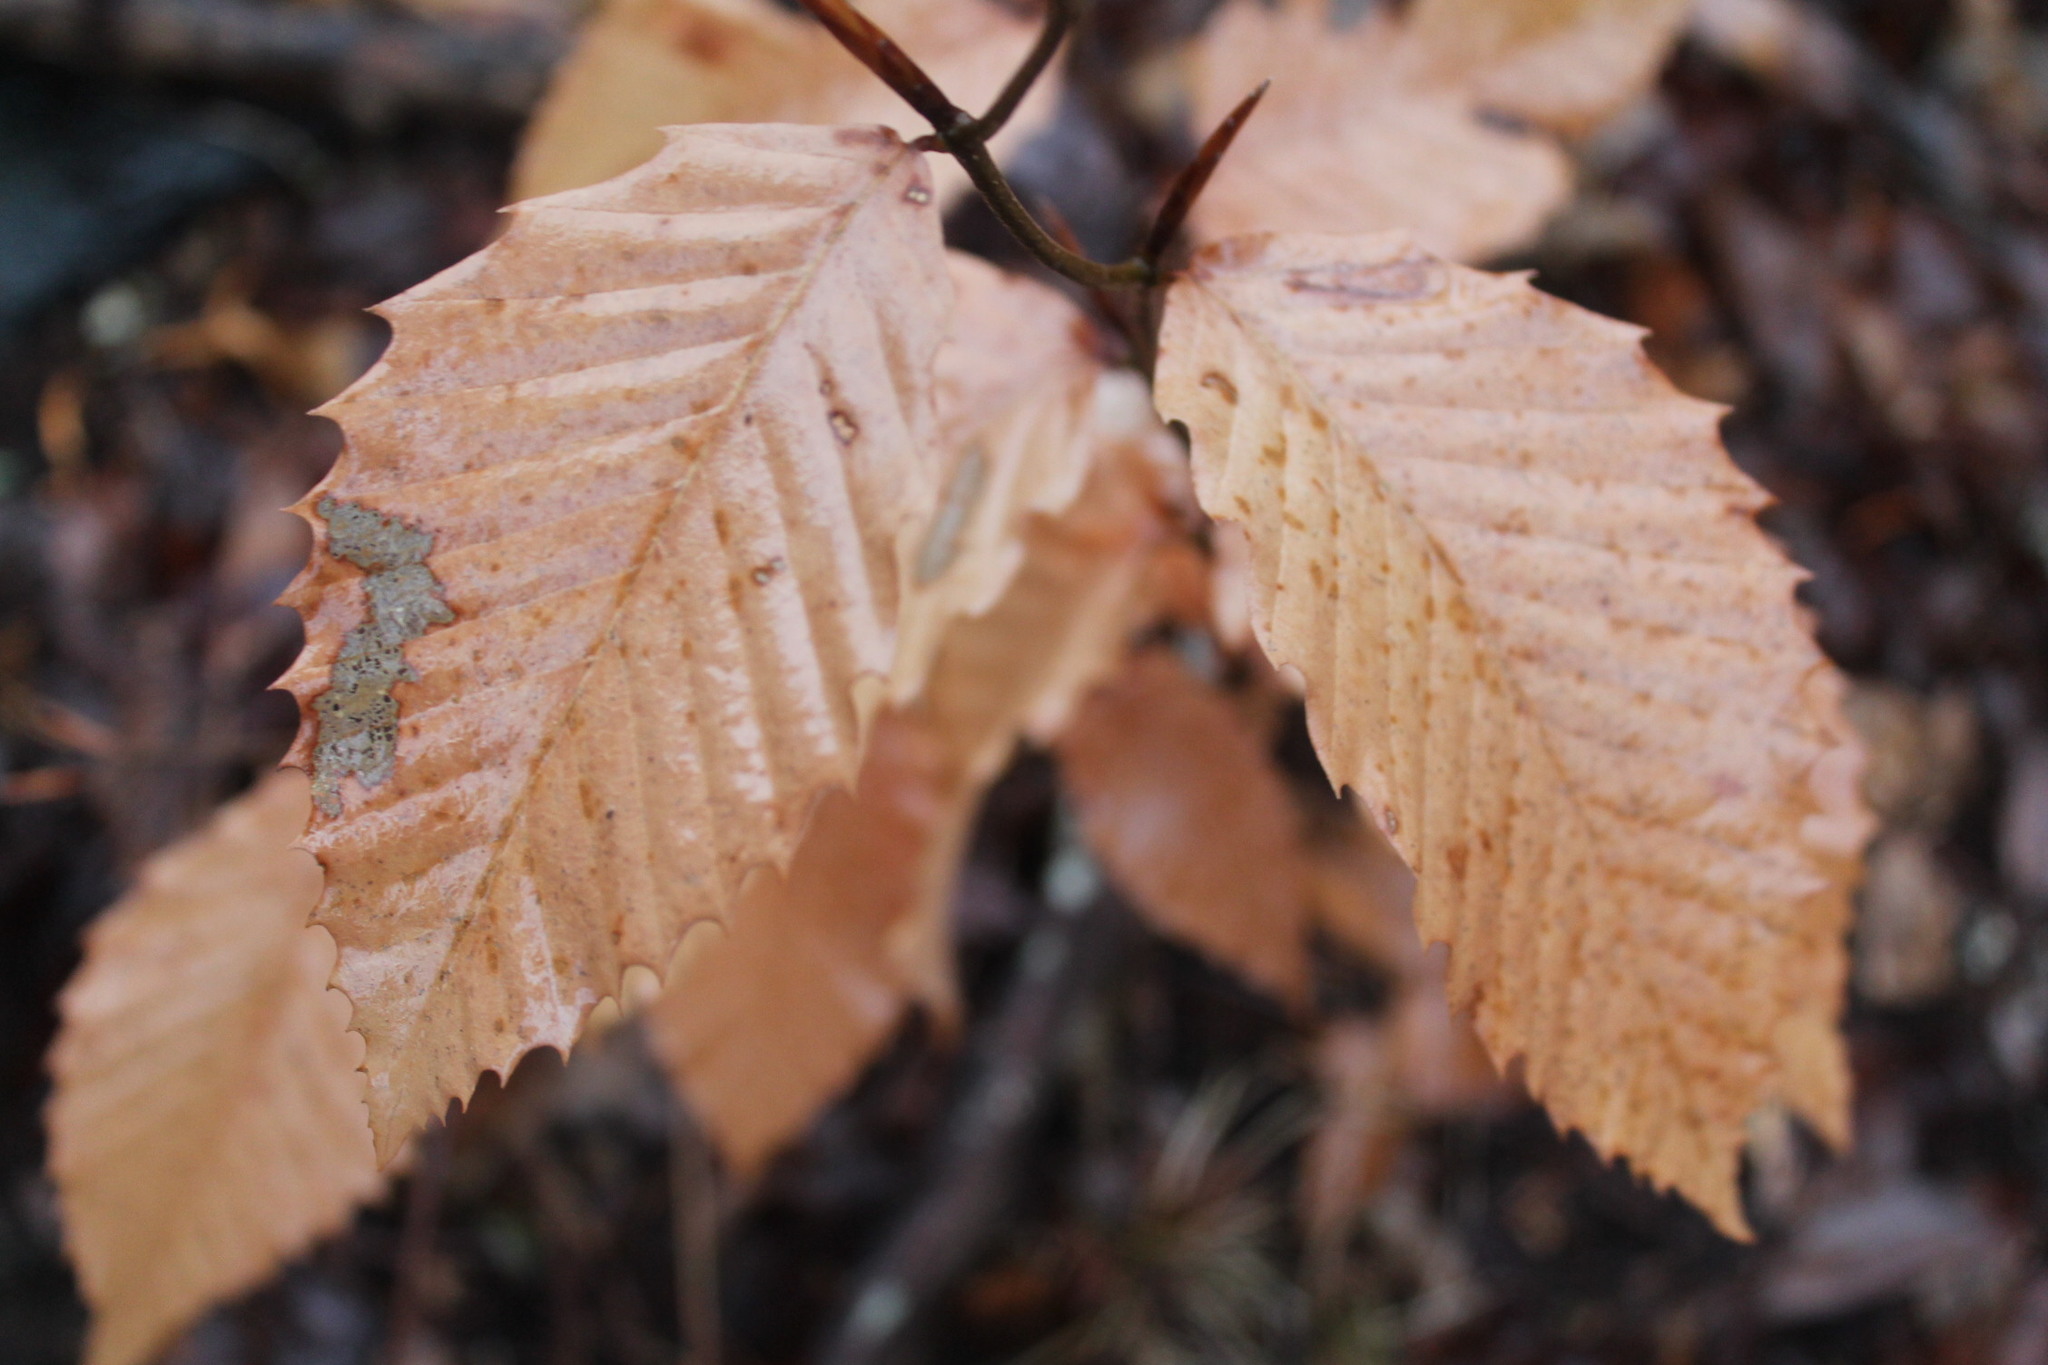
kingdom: Plantae
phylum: Tracheophyta
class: Magnoliopsida
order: Fagales
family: Fagaceae
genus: Fagus
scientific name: Fagus grandifolia
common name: American beech
